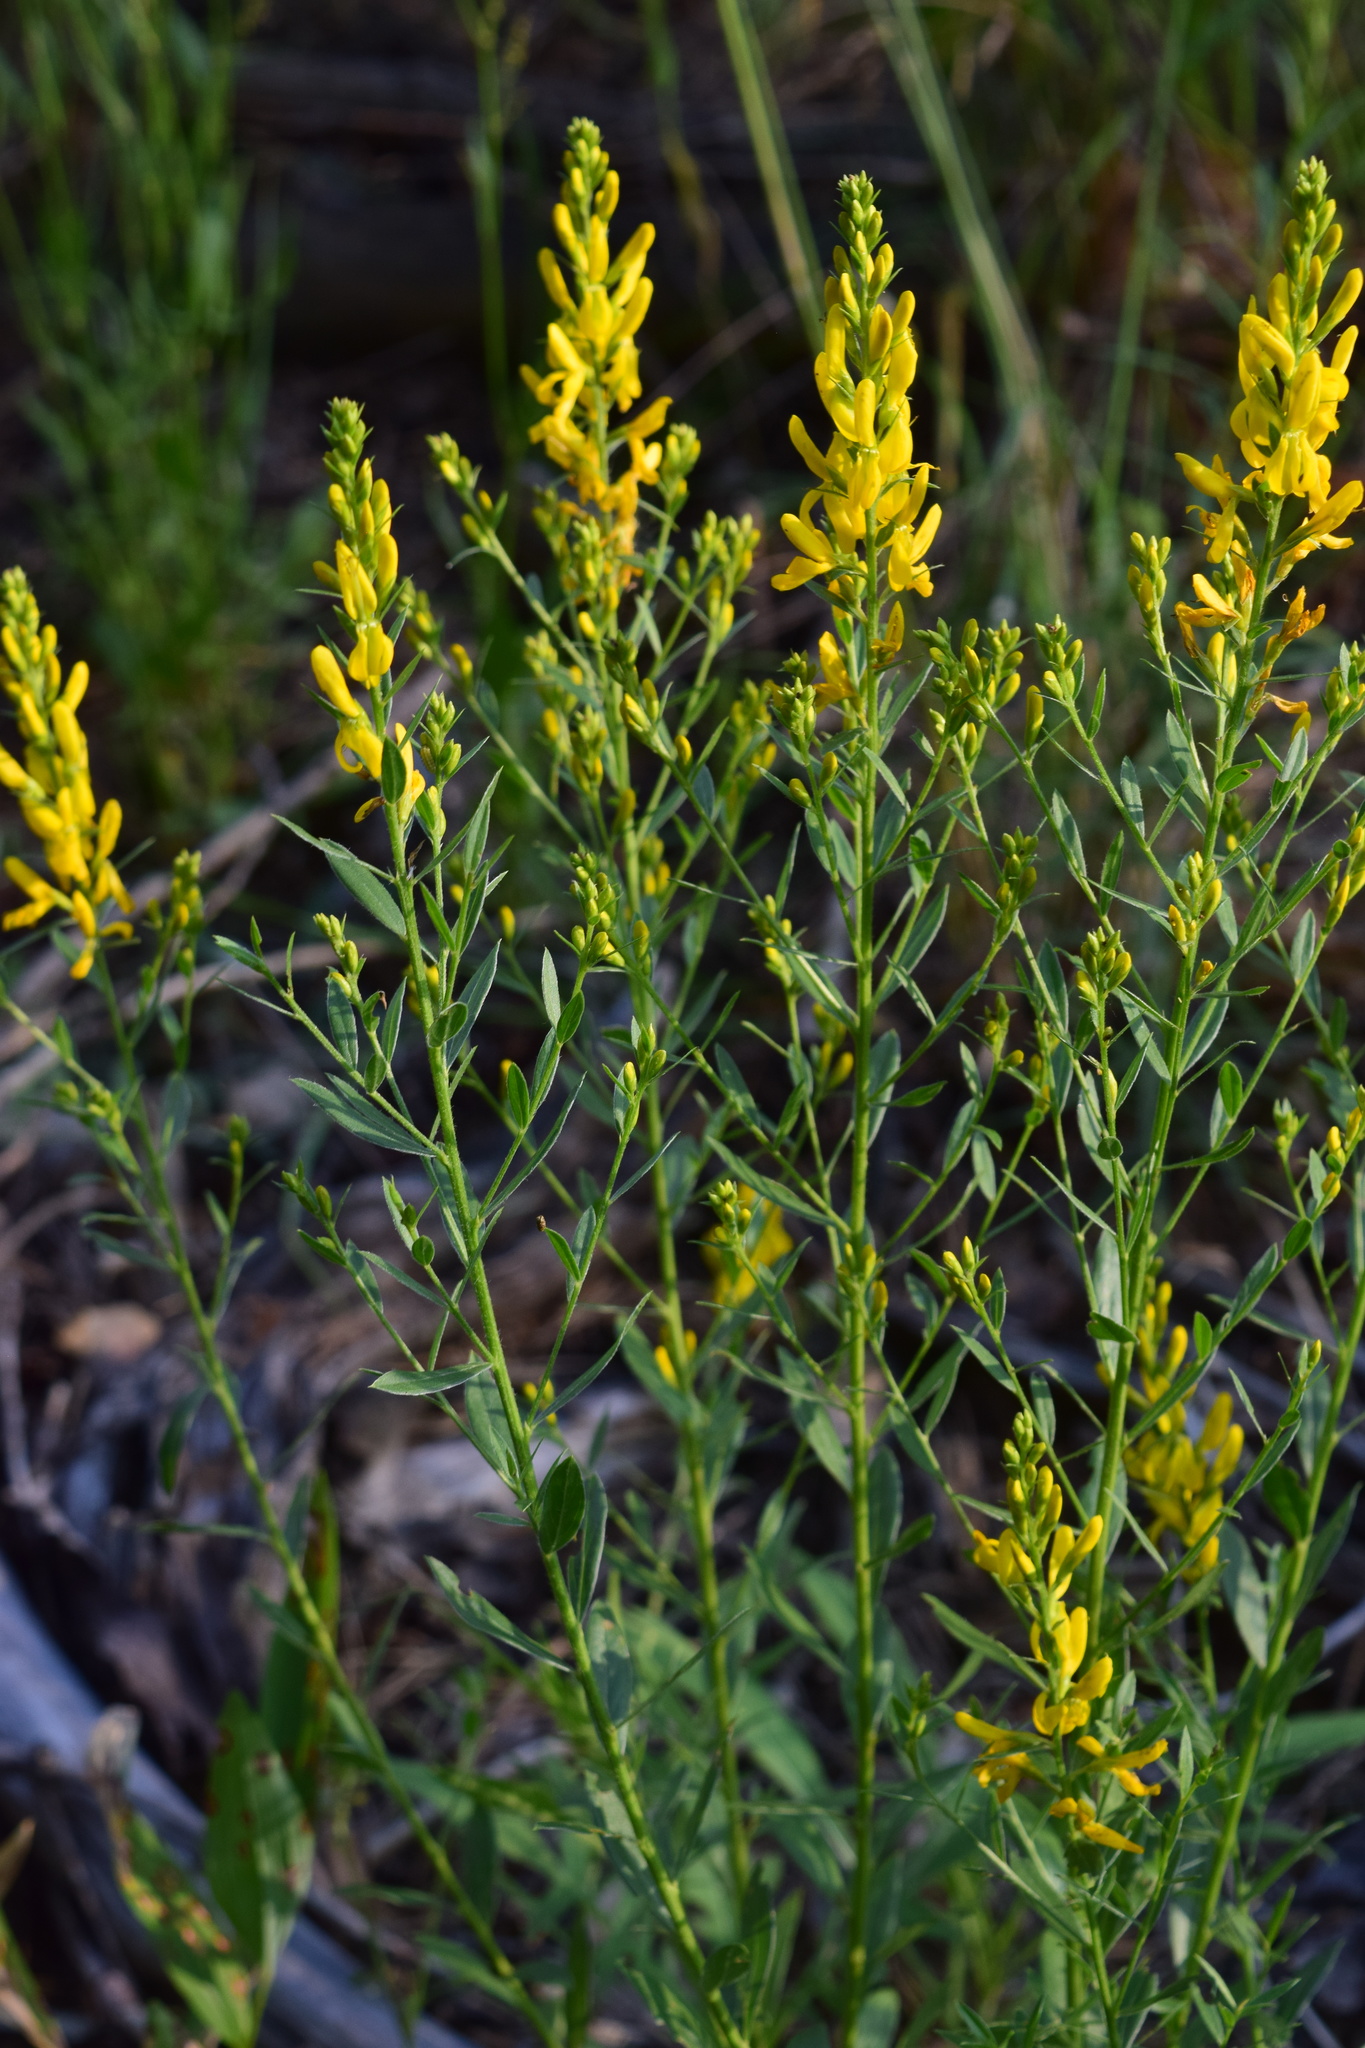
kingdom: Plantae
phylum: Tracheophyta
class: Magnoliopsida
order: Fabales
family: Fabaceae
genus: Genista
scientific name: Genista tinctoria
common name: Dyer's greenweed
